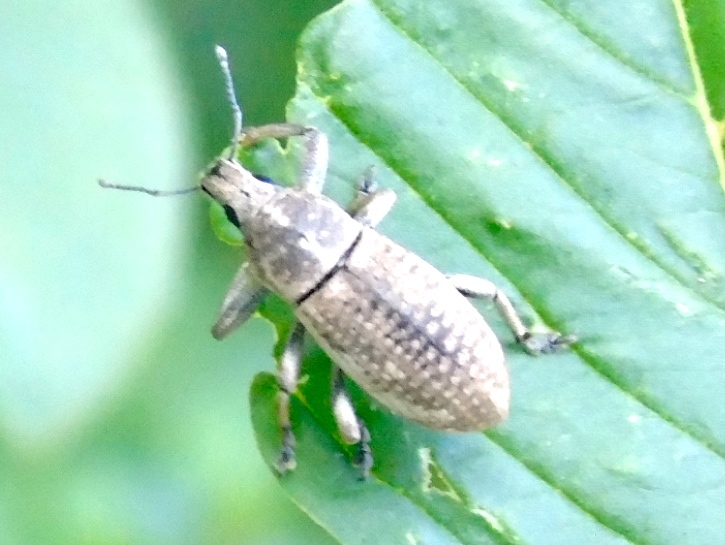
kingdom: Animalia
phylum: Arthropoda
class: Insecta
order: Coleoptera
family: Curculionidae
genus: Epicaerus
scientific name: Epicaerus
